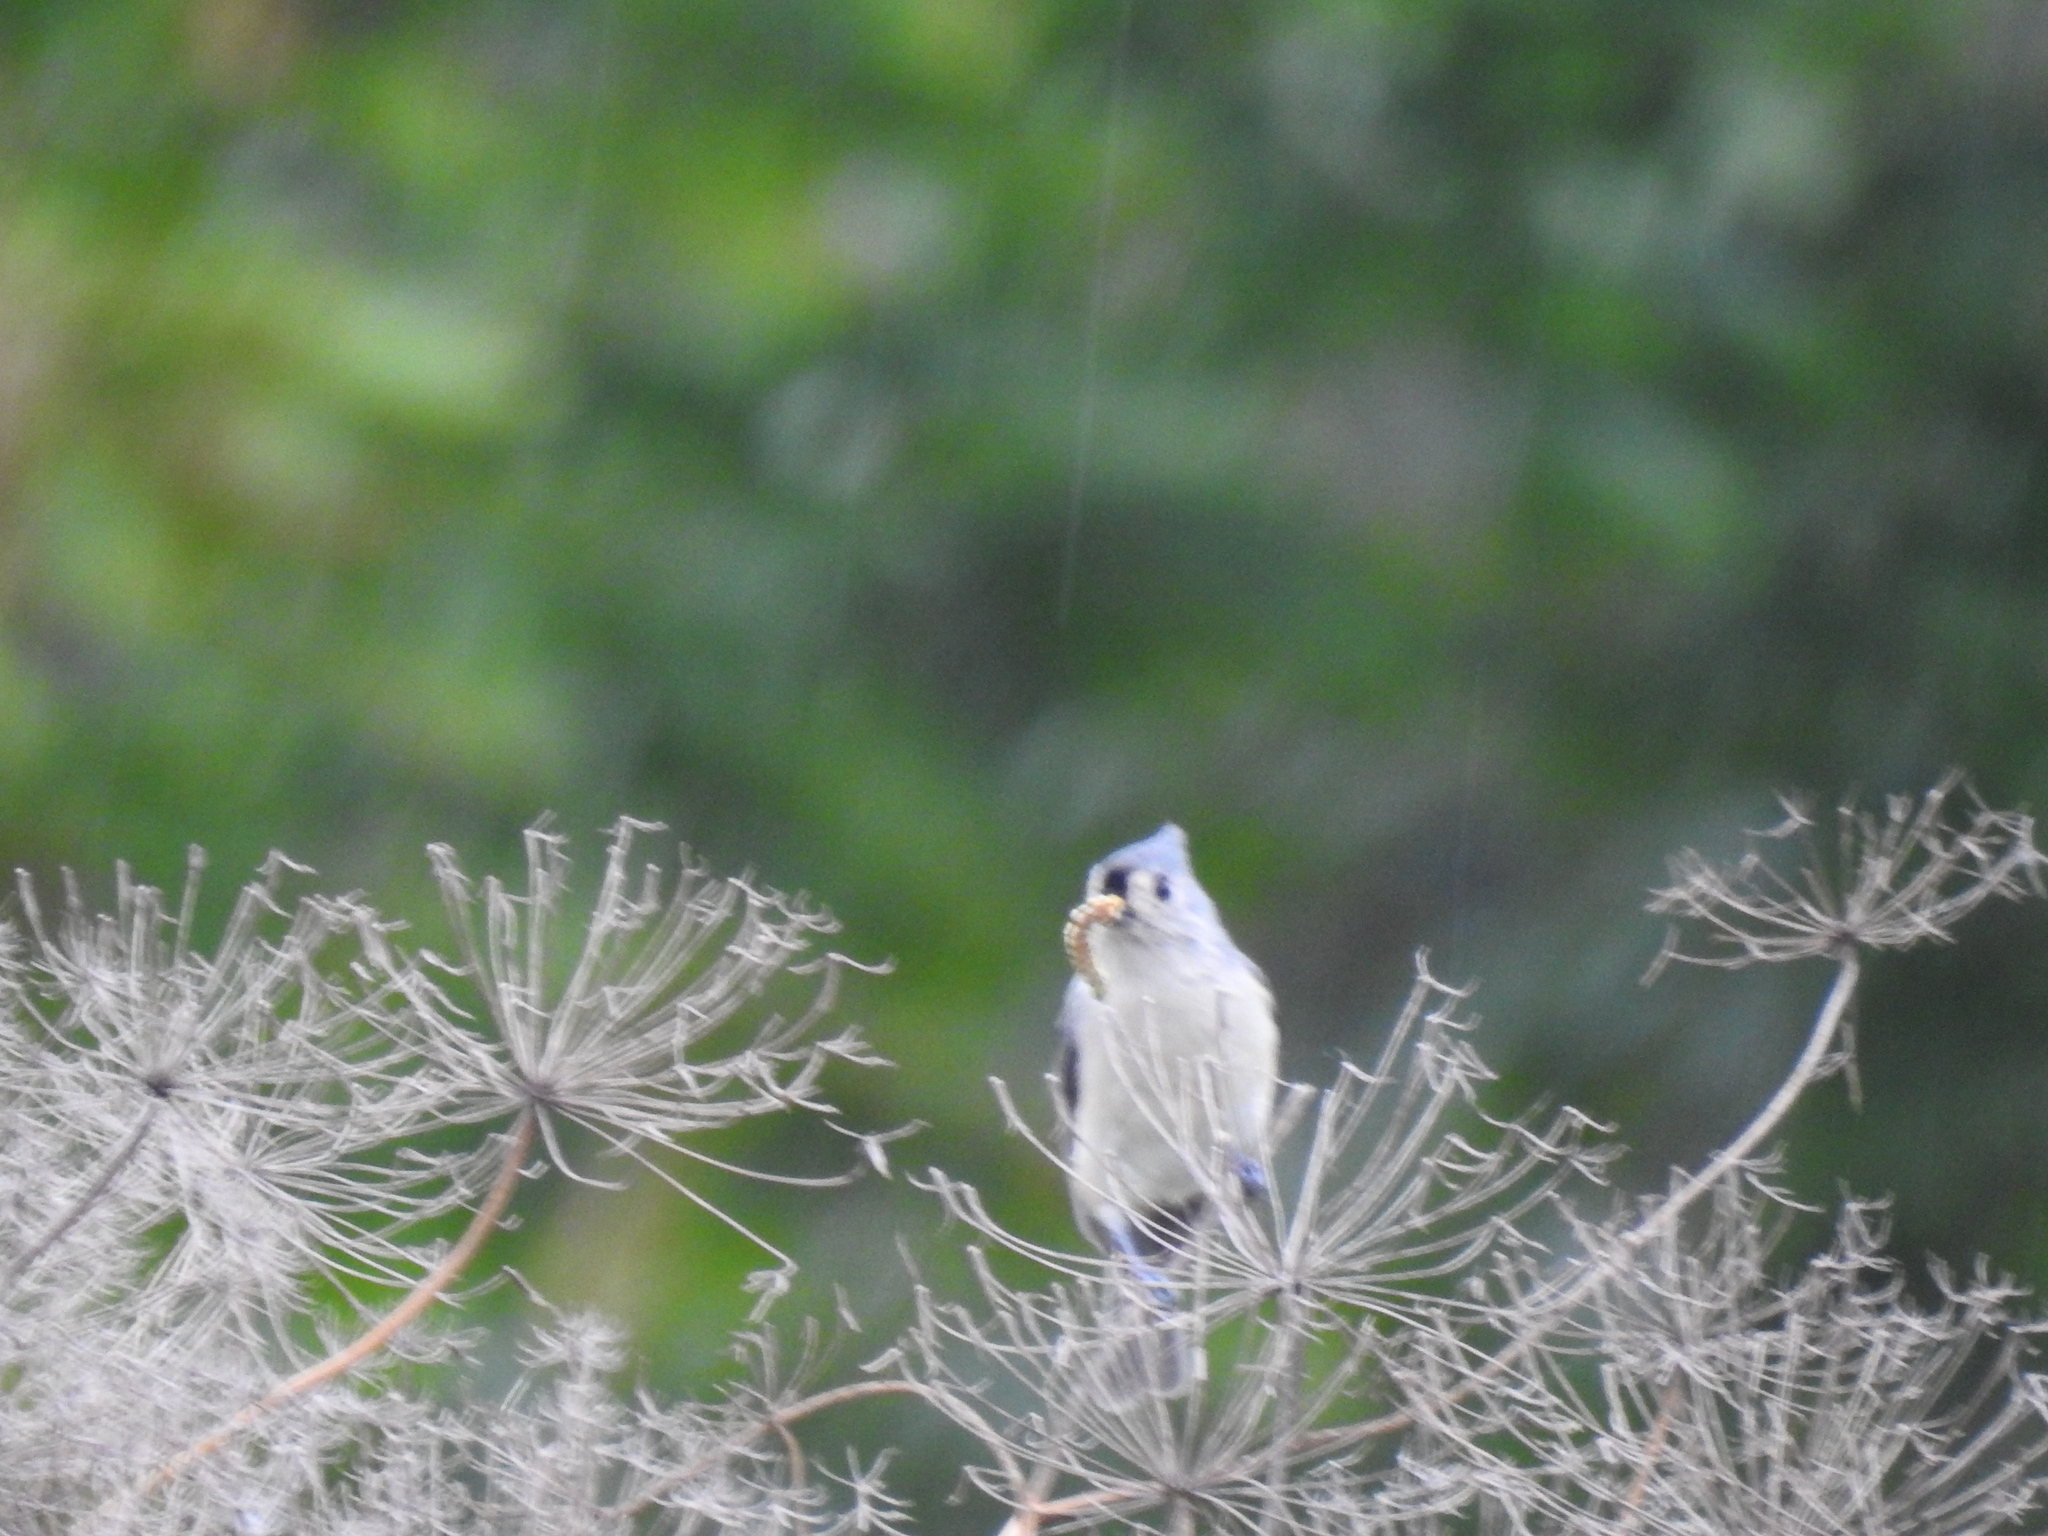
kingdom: Animalia
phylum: Chordata
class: Aves
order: Passeriformes
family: Paridae
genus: Baeolophus
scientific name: Baeolophus bicolor
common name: Tufted titmouse
